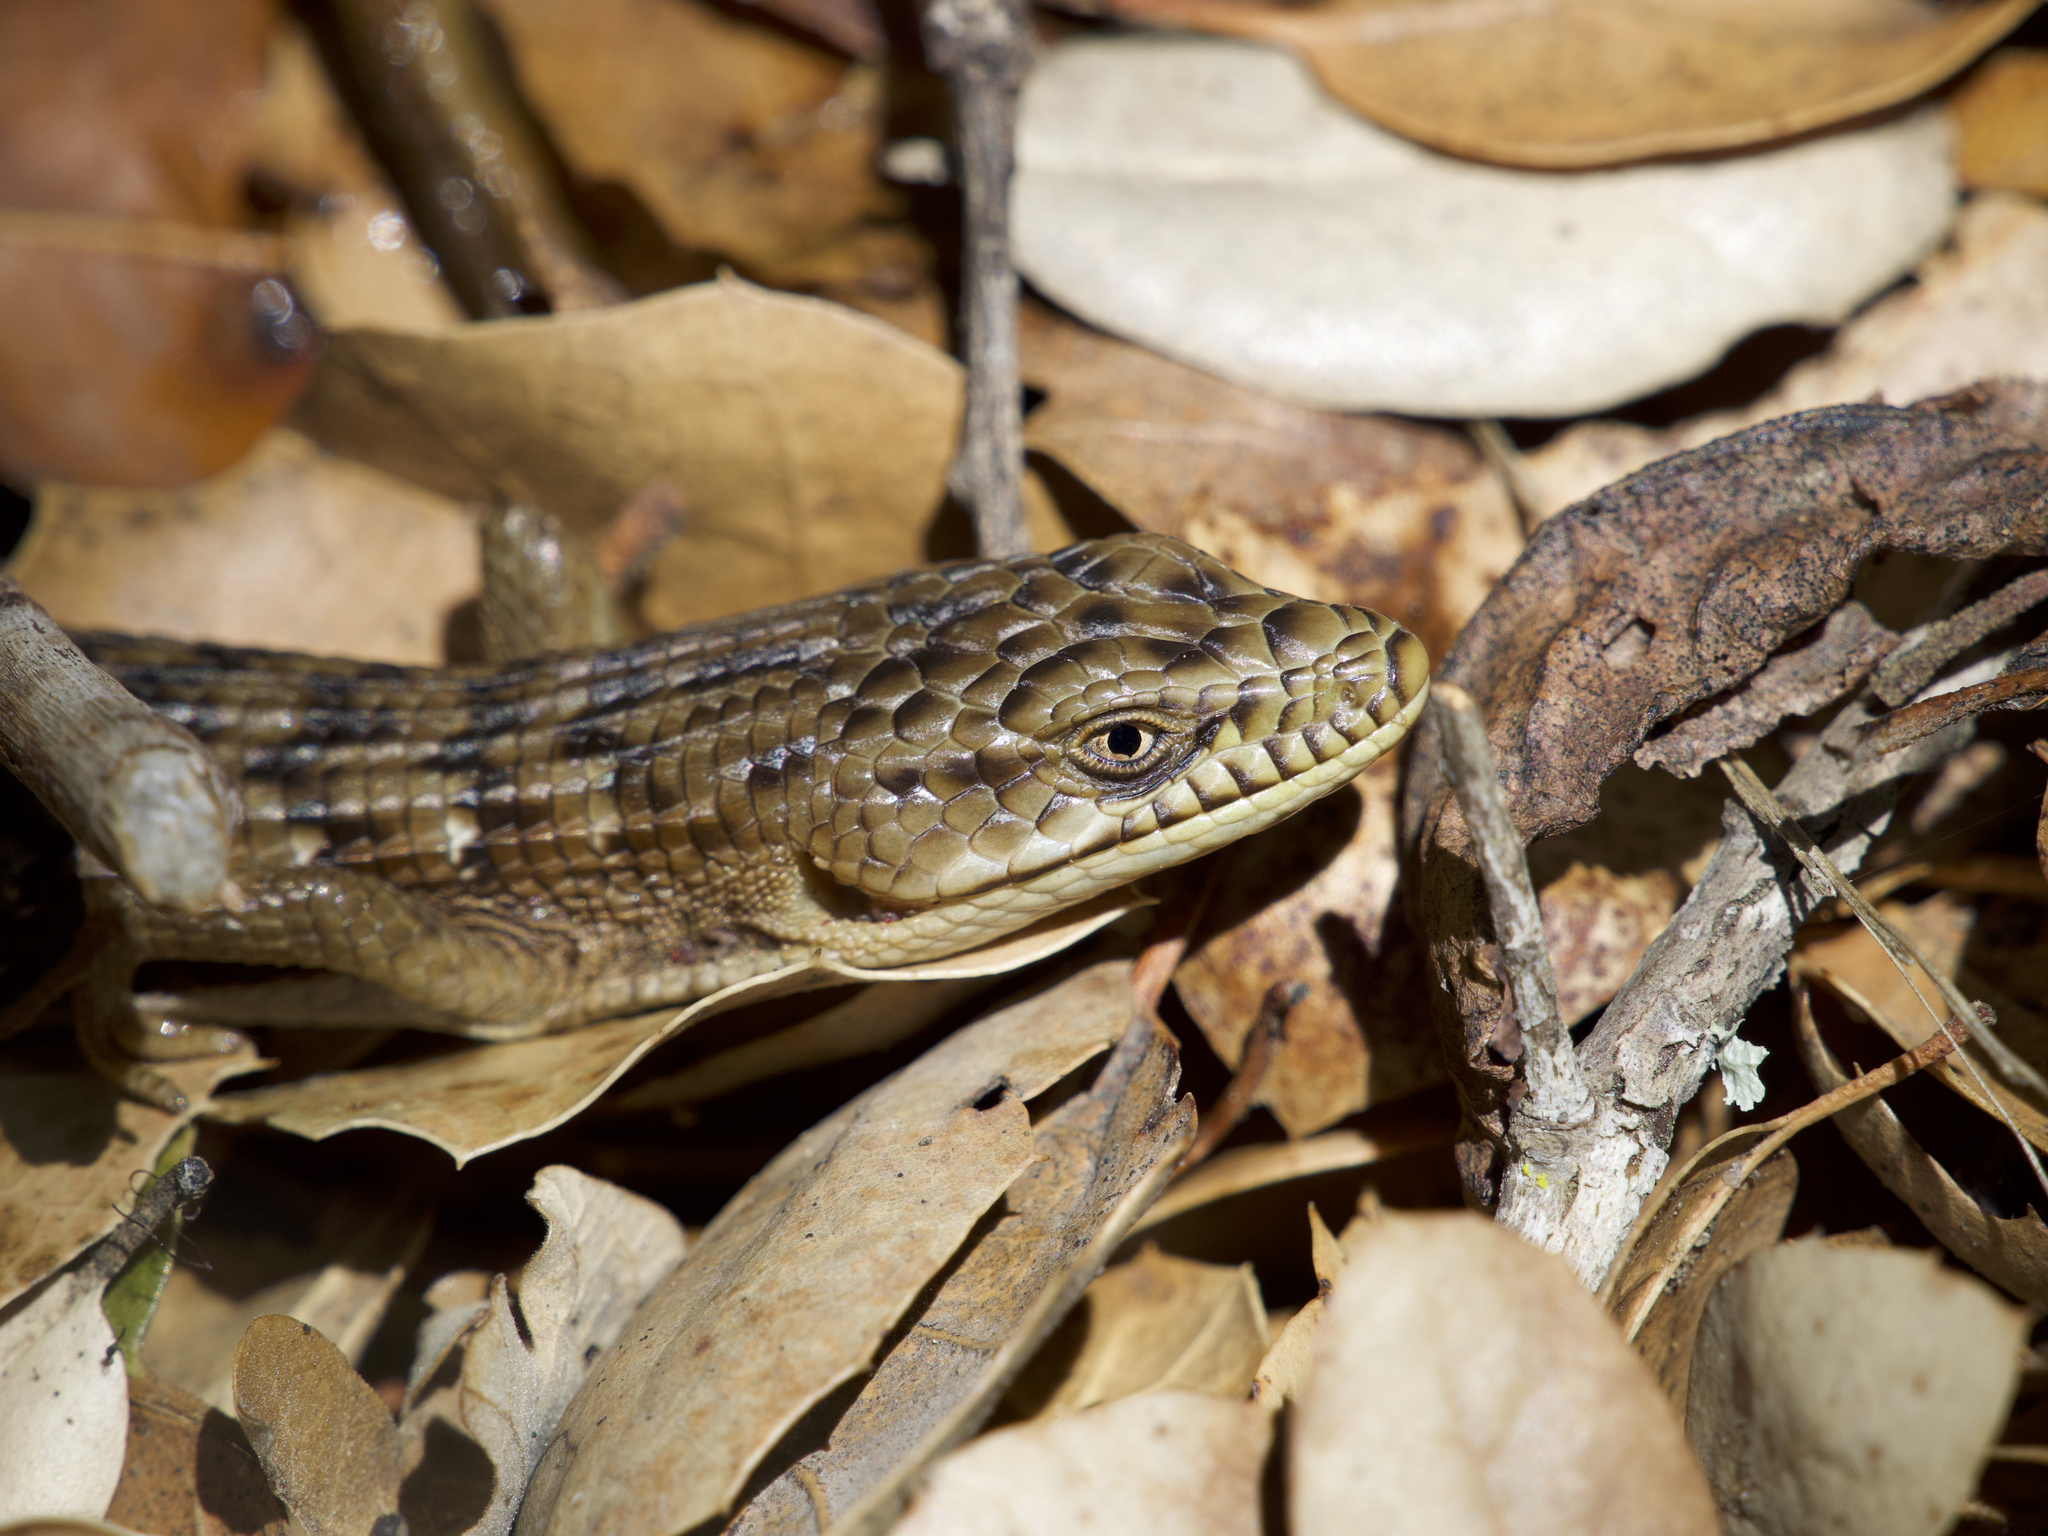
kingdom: Animalia
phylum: Chordata
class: Squamata
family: Anguidae
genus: Elgaria
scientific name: Elgaria multicarinata
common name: Southern alligator lizard
